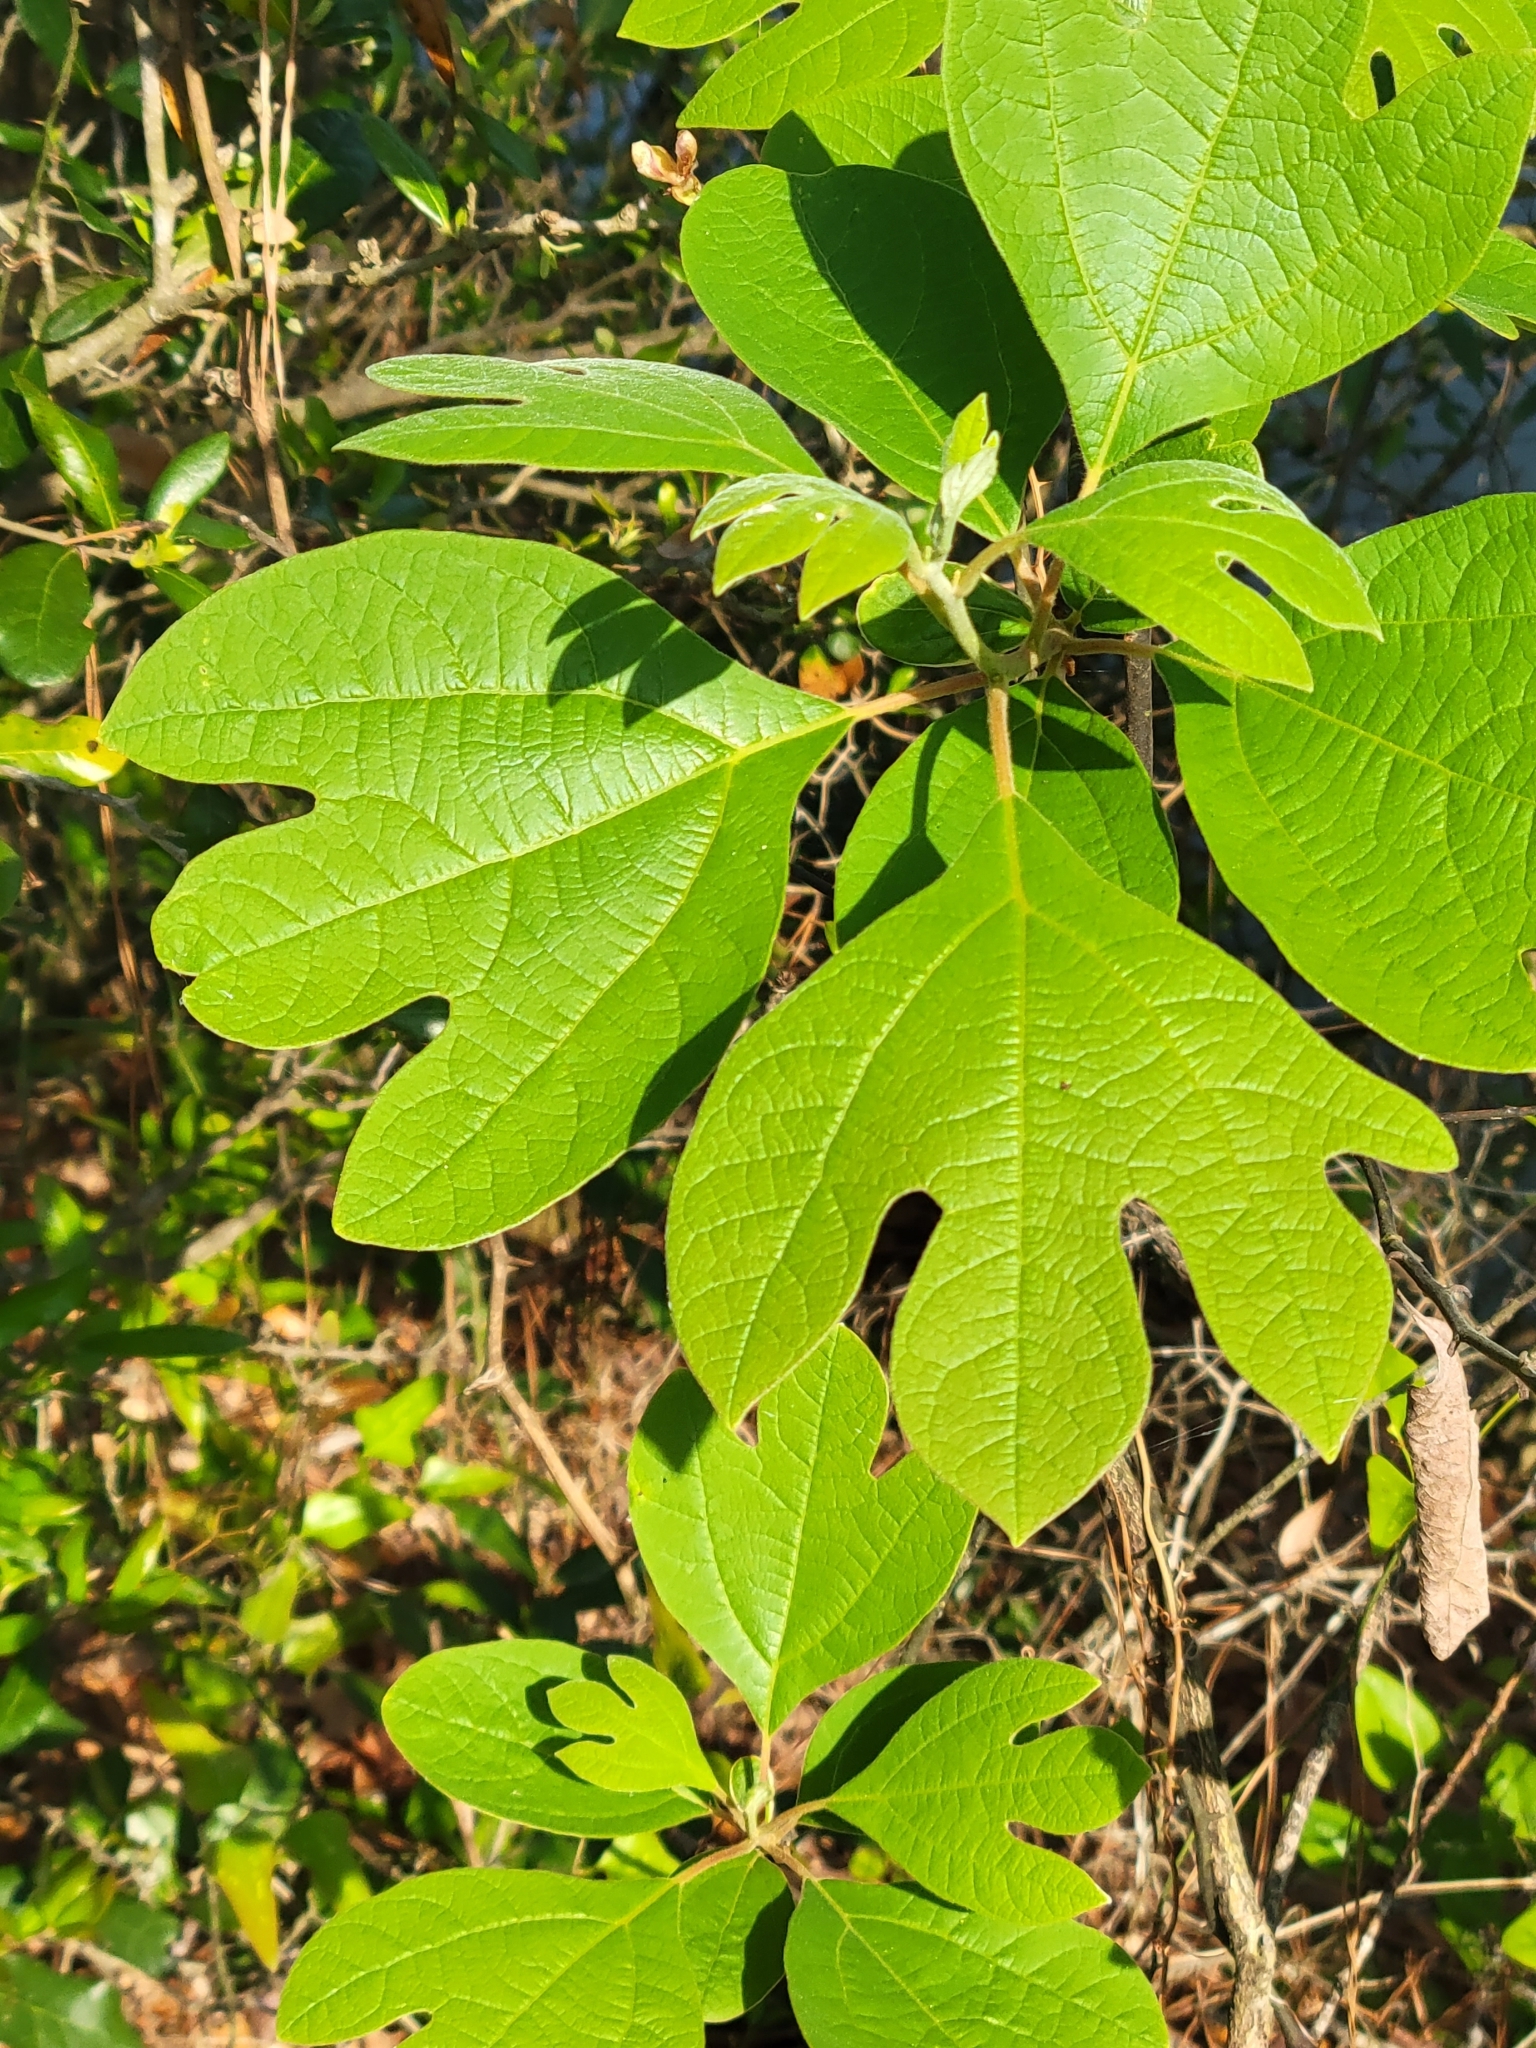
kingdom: Plantae
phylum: Tracheophyta
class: Magnoliopsida
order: Laurales
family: Lauraceae
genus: Sassafras
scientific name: Sassafras albidum
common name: Sassafras
